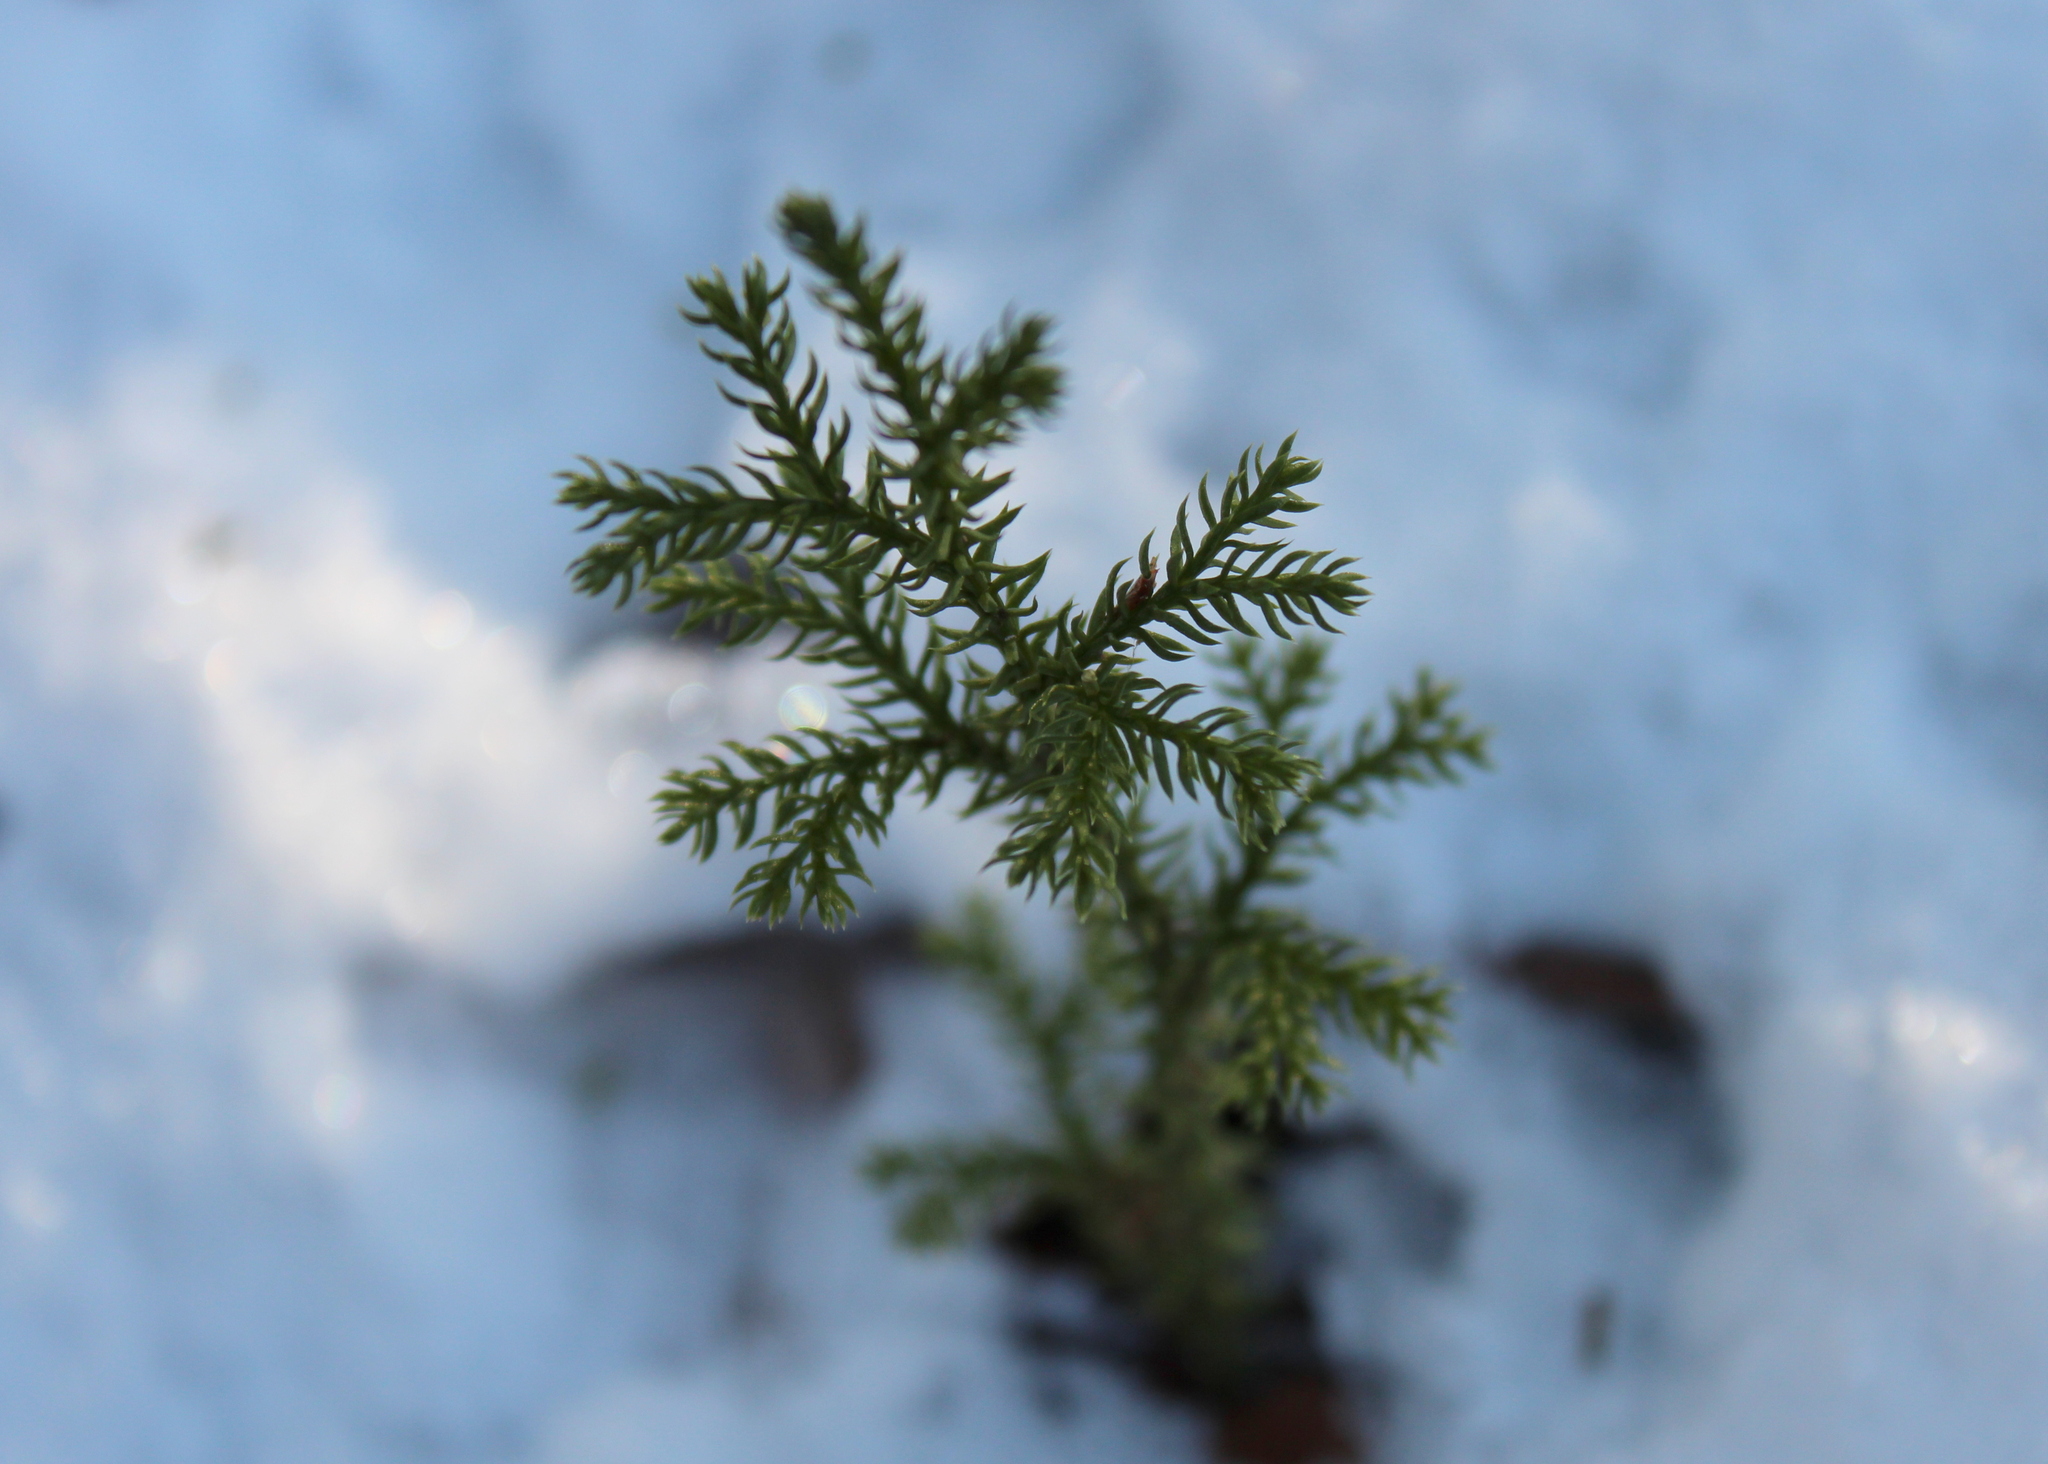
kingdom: Plantae
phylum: Tracheophyta
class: Lycopodiopsida
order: Lycopodiales
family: Lycopodiaceae
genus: Dendrolycopodium
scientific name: Dendrolycopodium dendroideum
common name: Northern tree-clubmoss
